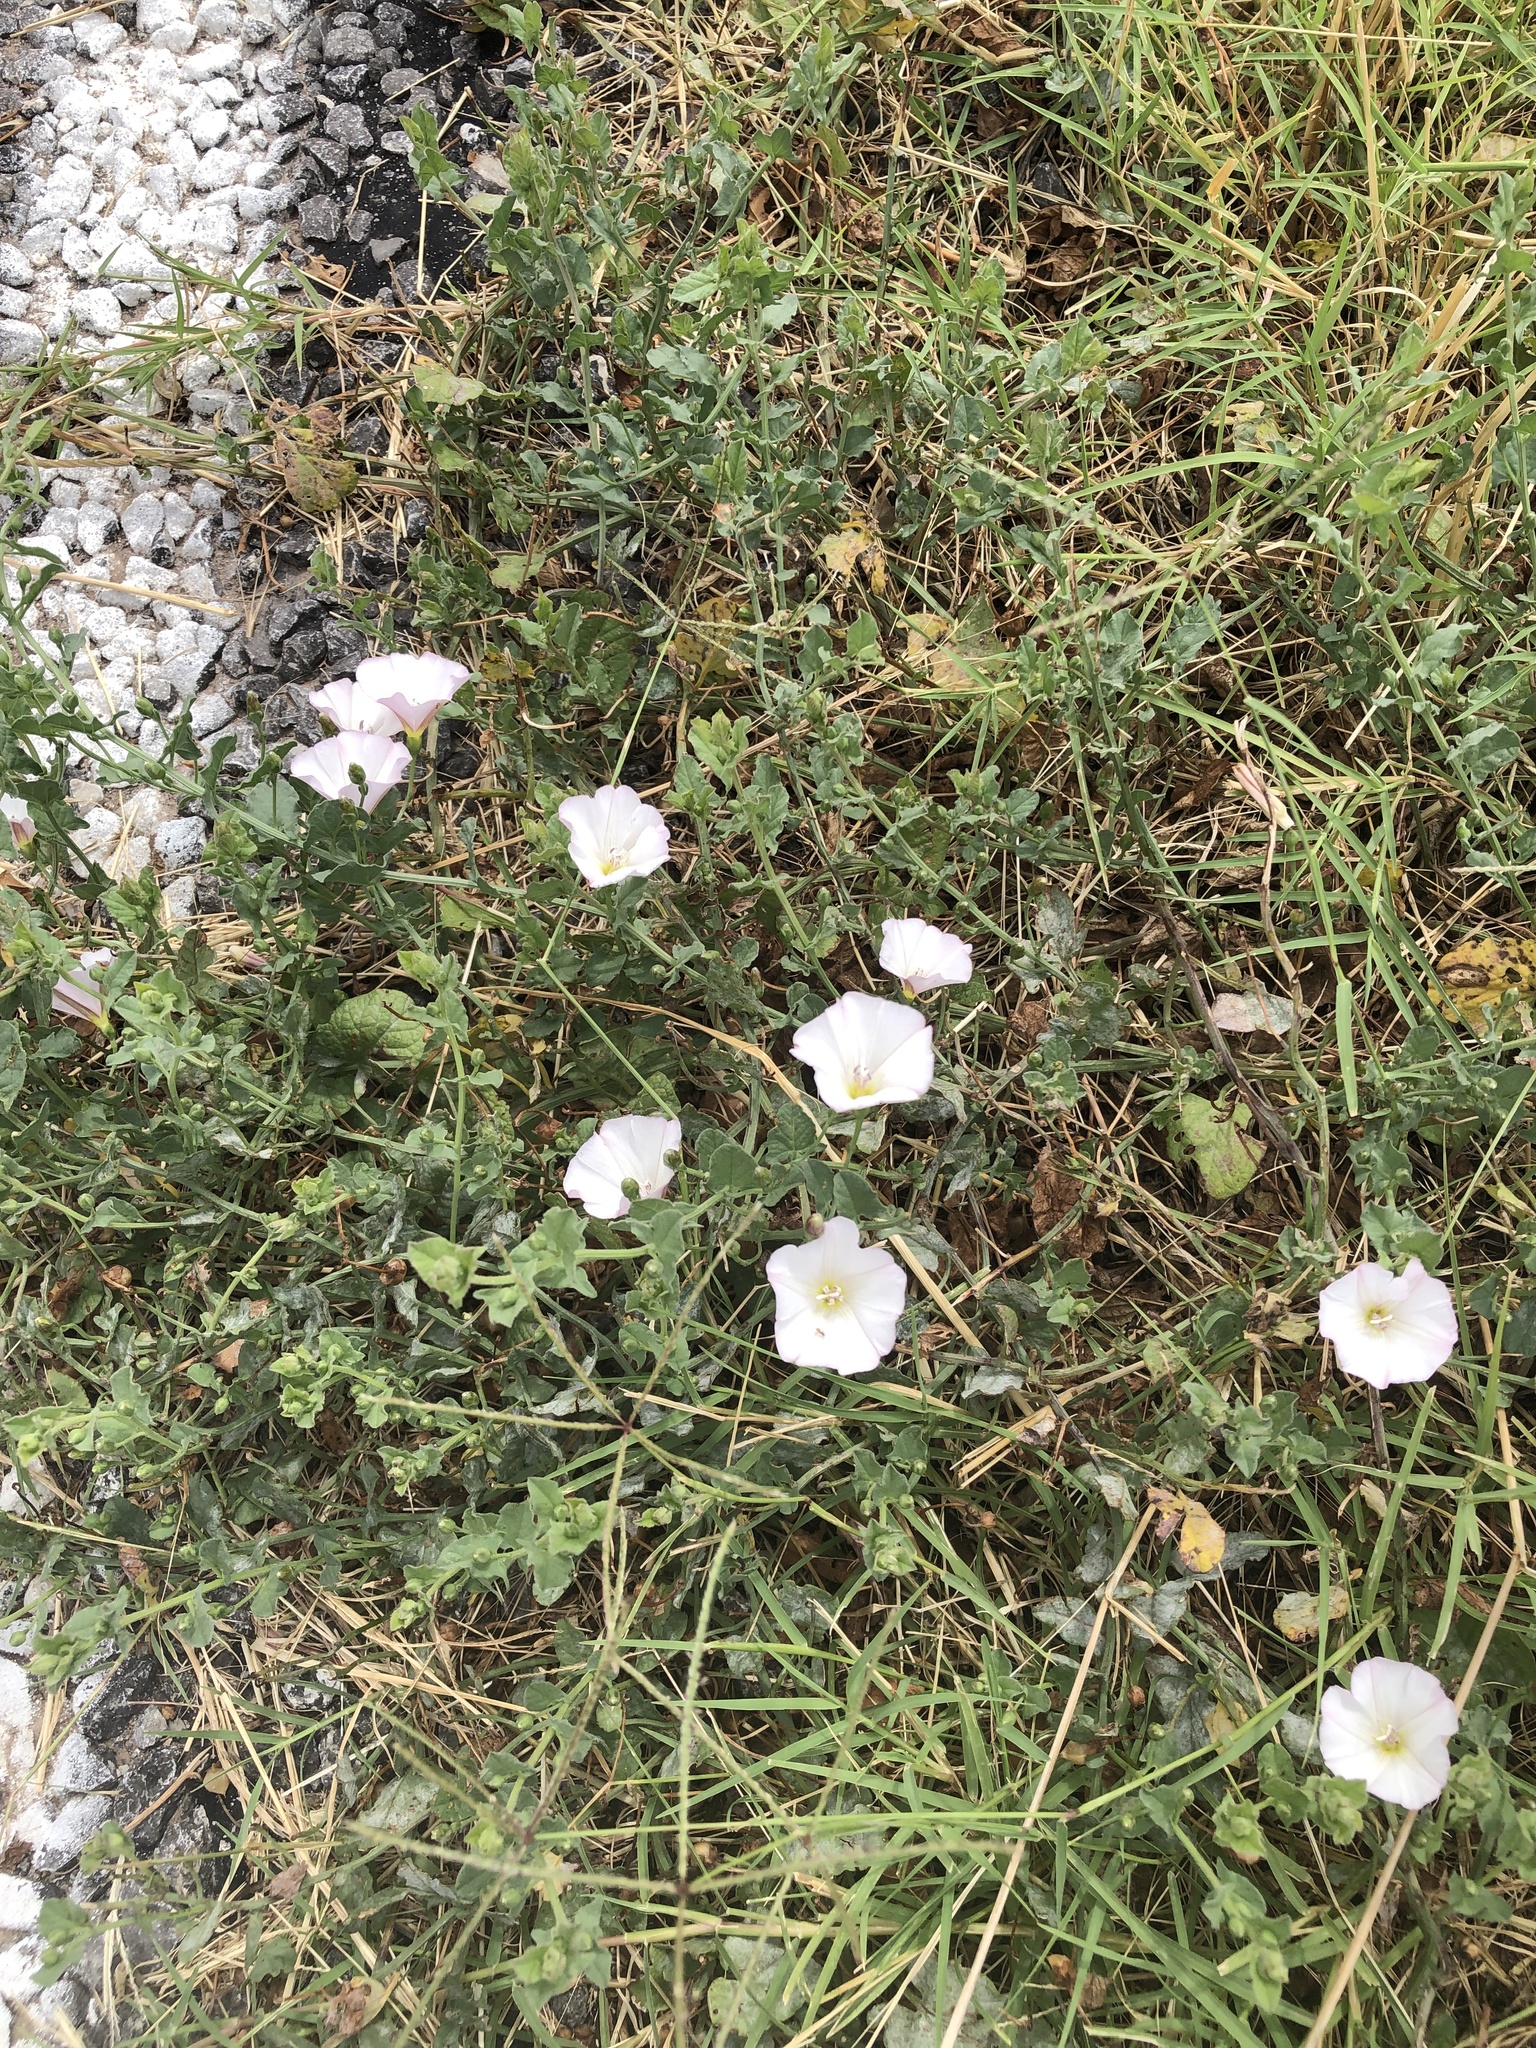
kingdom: Plantae
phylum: Tracheophyta
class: Magnoliopsida
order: Solanales
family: Convolvulaceae
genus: Convolvulus
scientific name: Convolvulus arvensis
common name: Field bindweed
